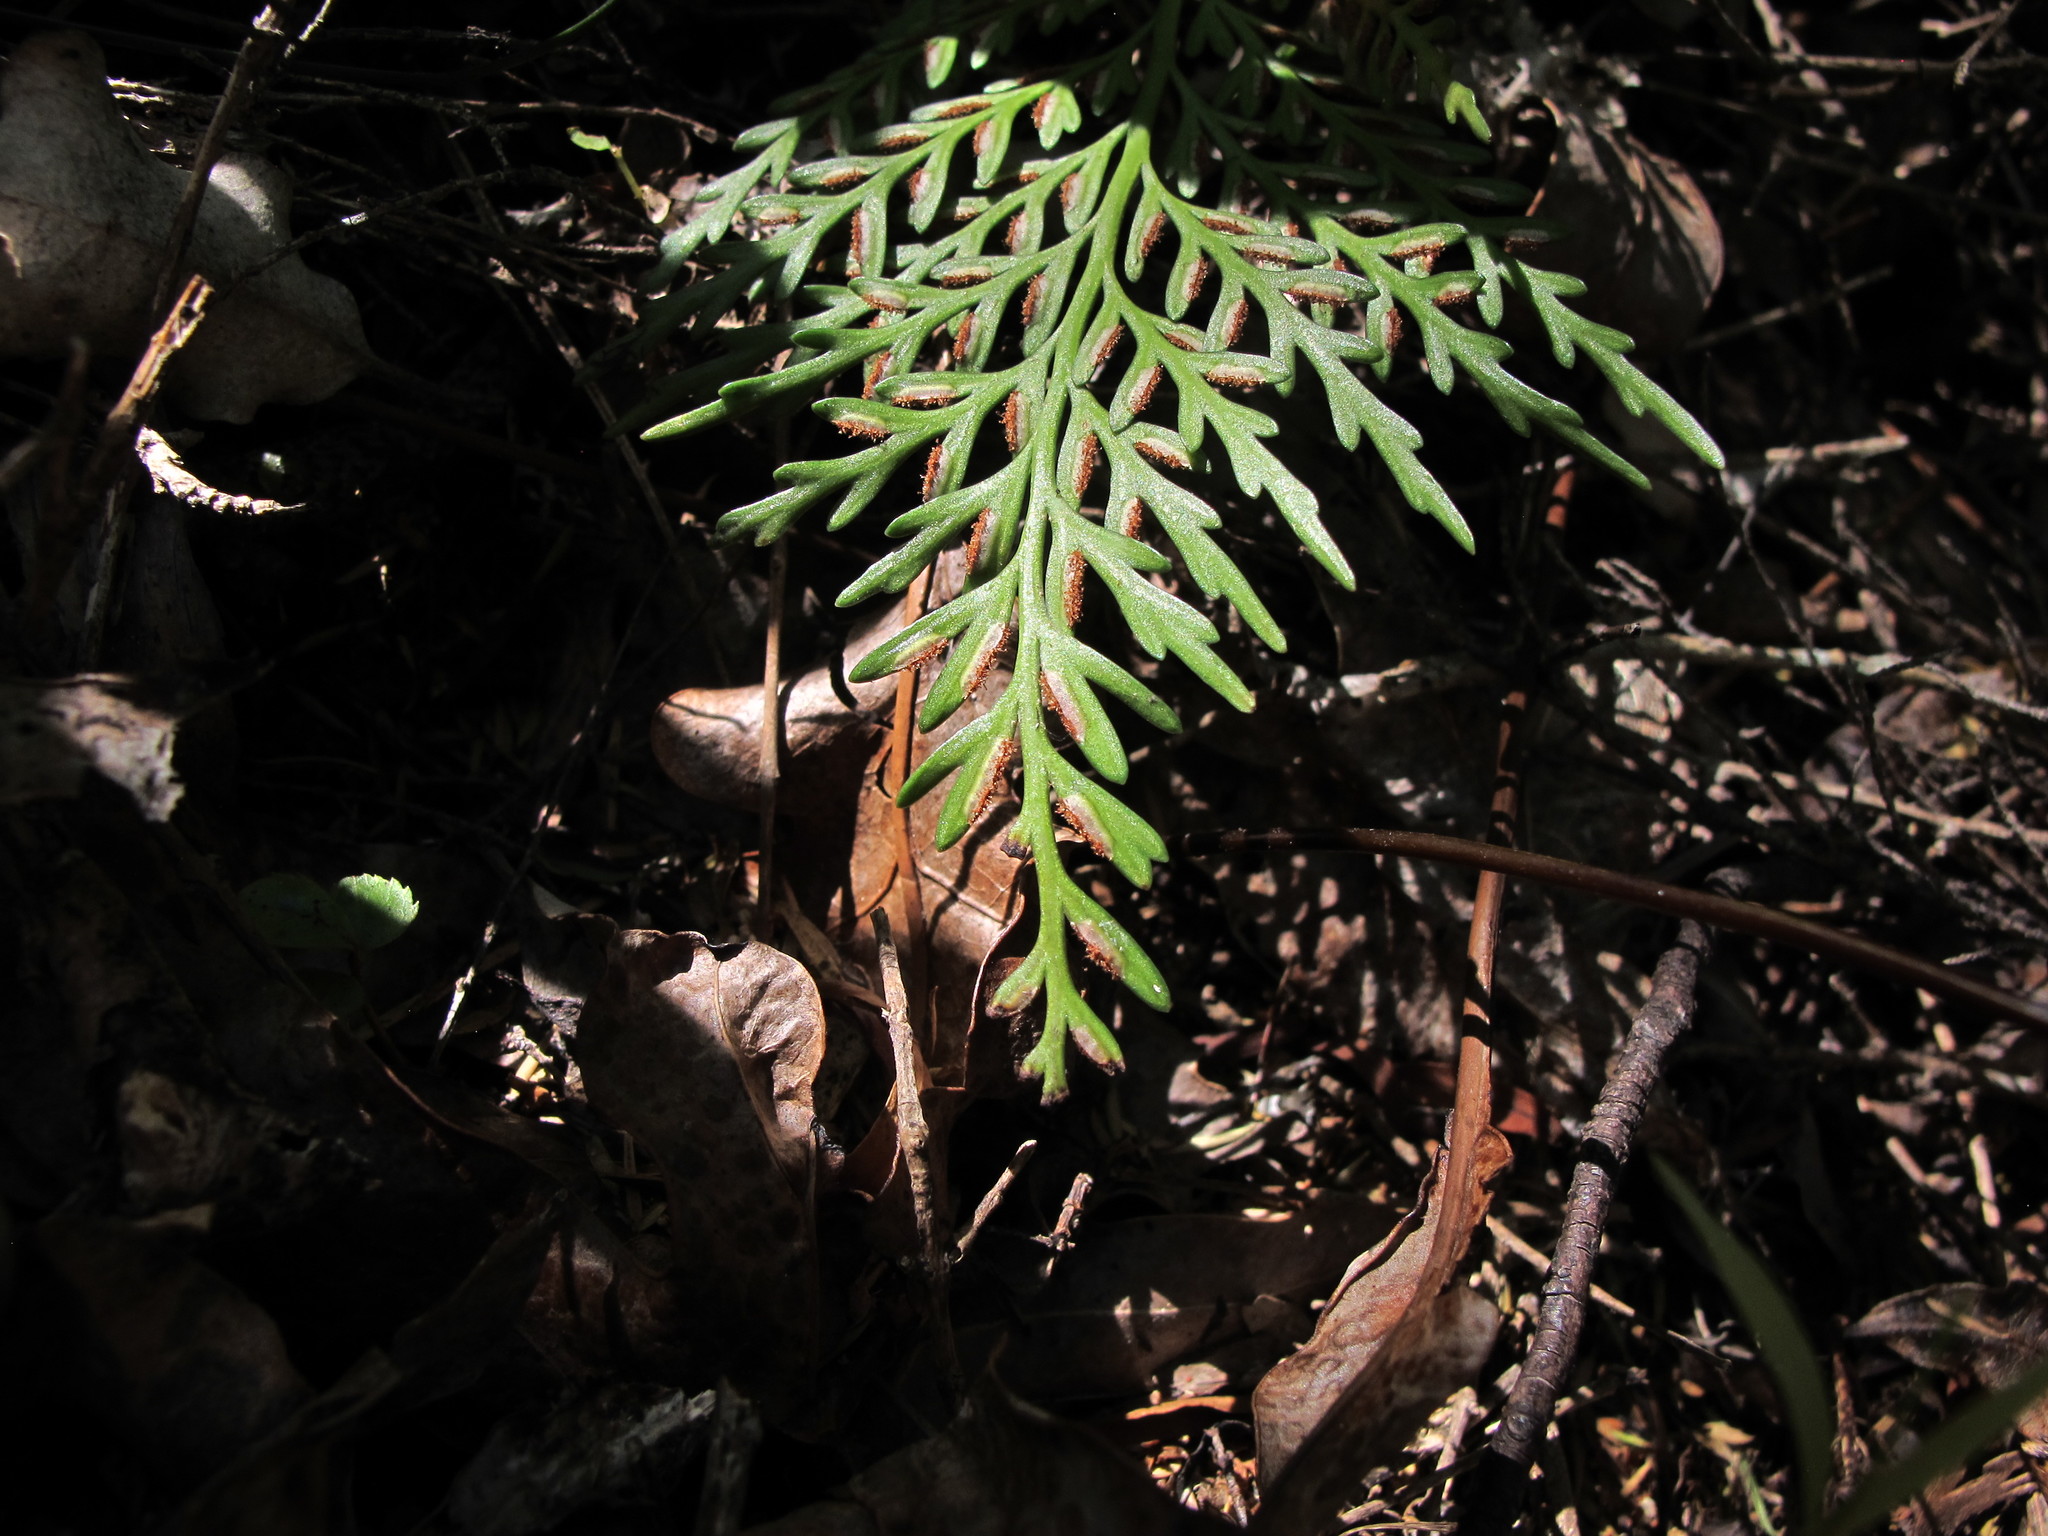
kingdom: Plantae
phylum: Tracheophyta
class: Polypodiopsida
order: Polypodiales
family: Aspleniaceae
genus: Asplenium
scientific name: Asplenium flaccidum
